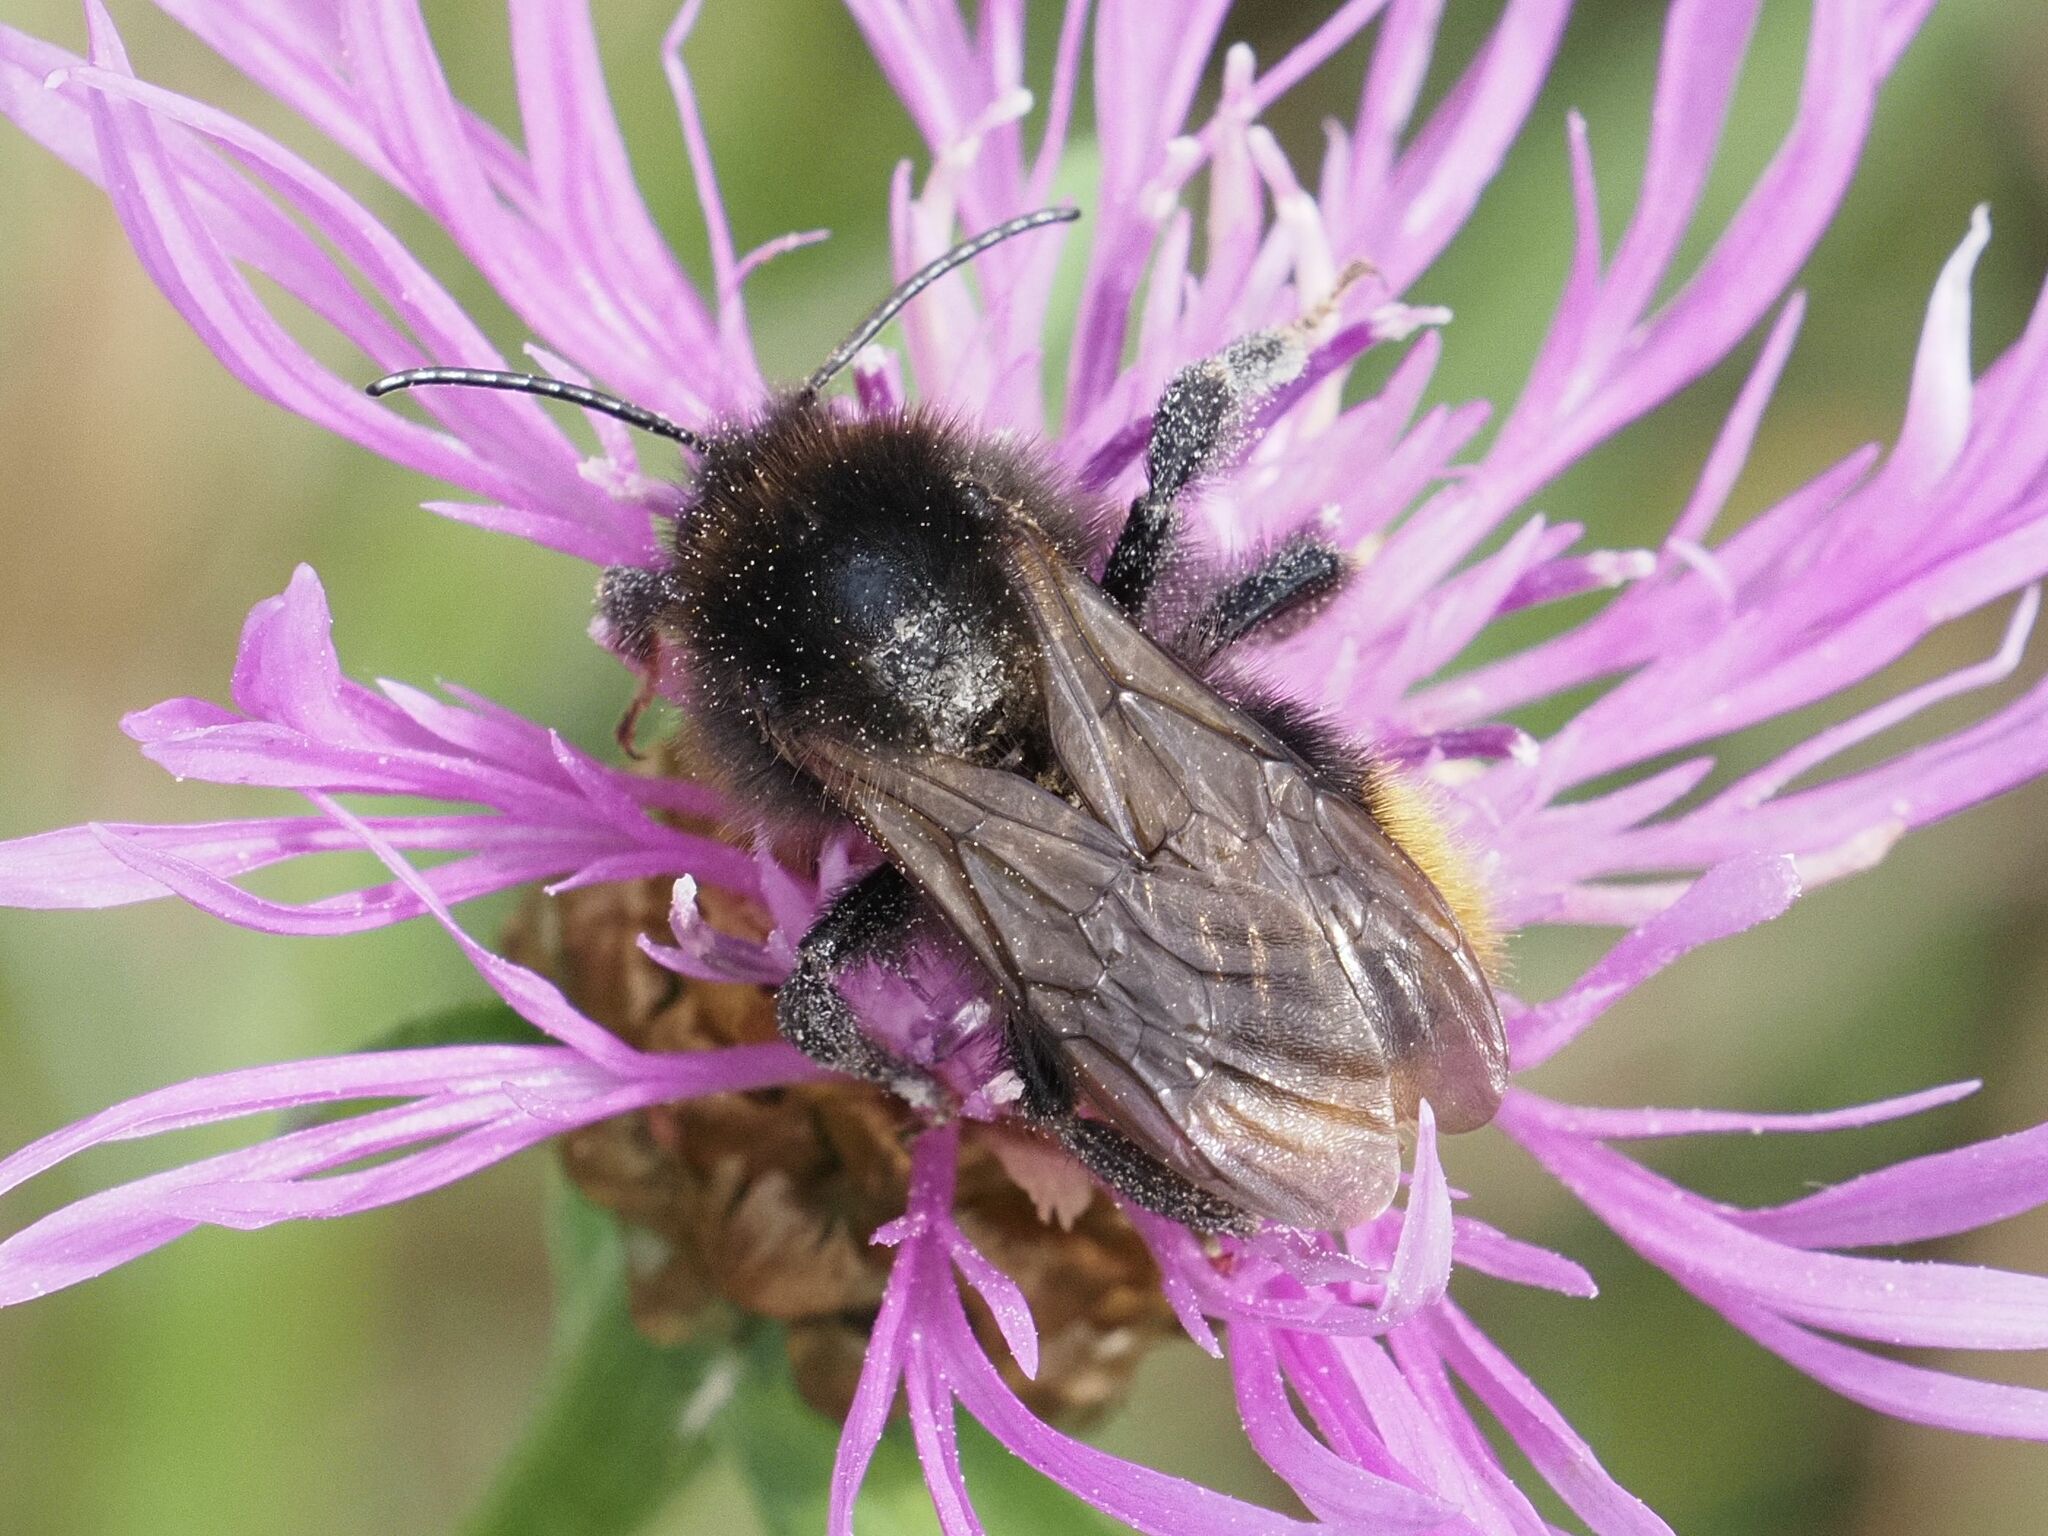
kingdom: Animalia
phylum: Arthropoda
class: Insecta
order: Hymenoptera
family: Apidae
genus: Bombus
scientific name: Bombus rupestris
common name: Hill cuckoo-bee
